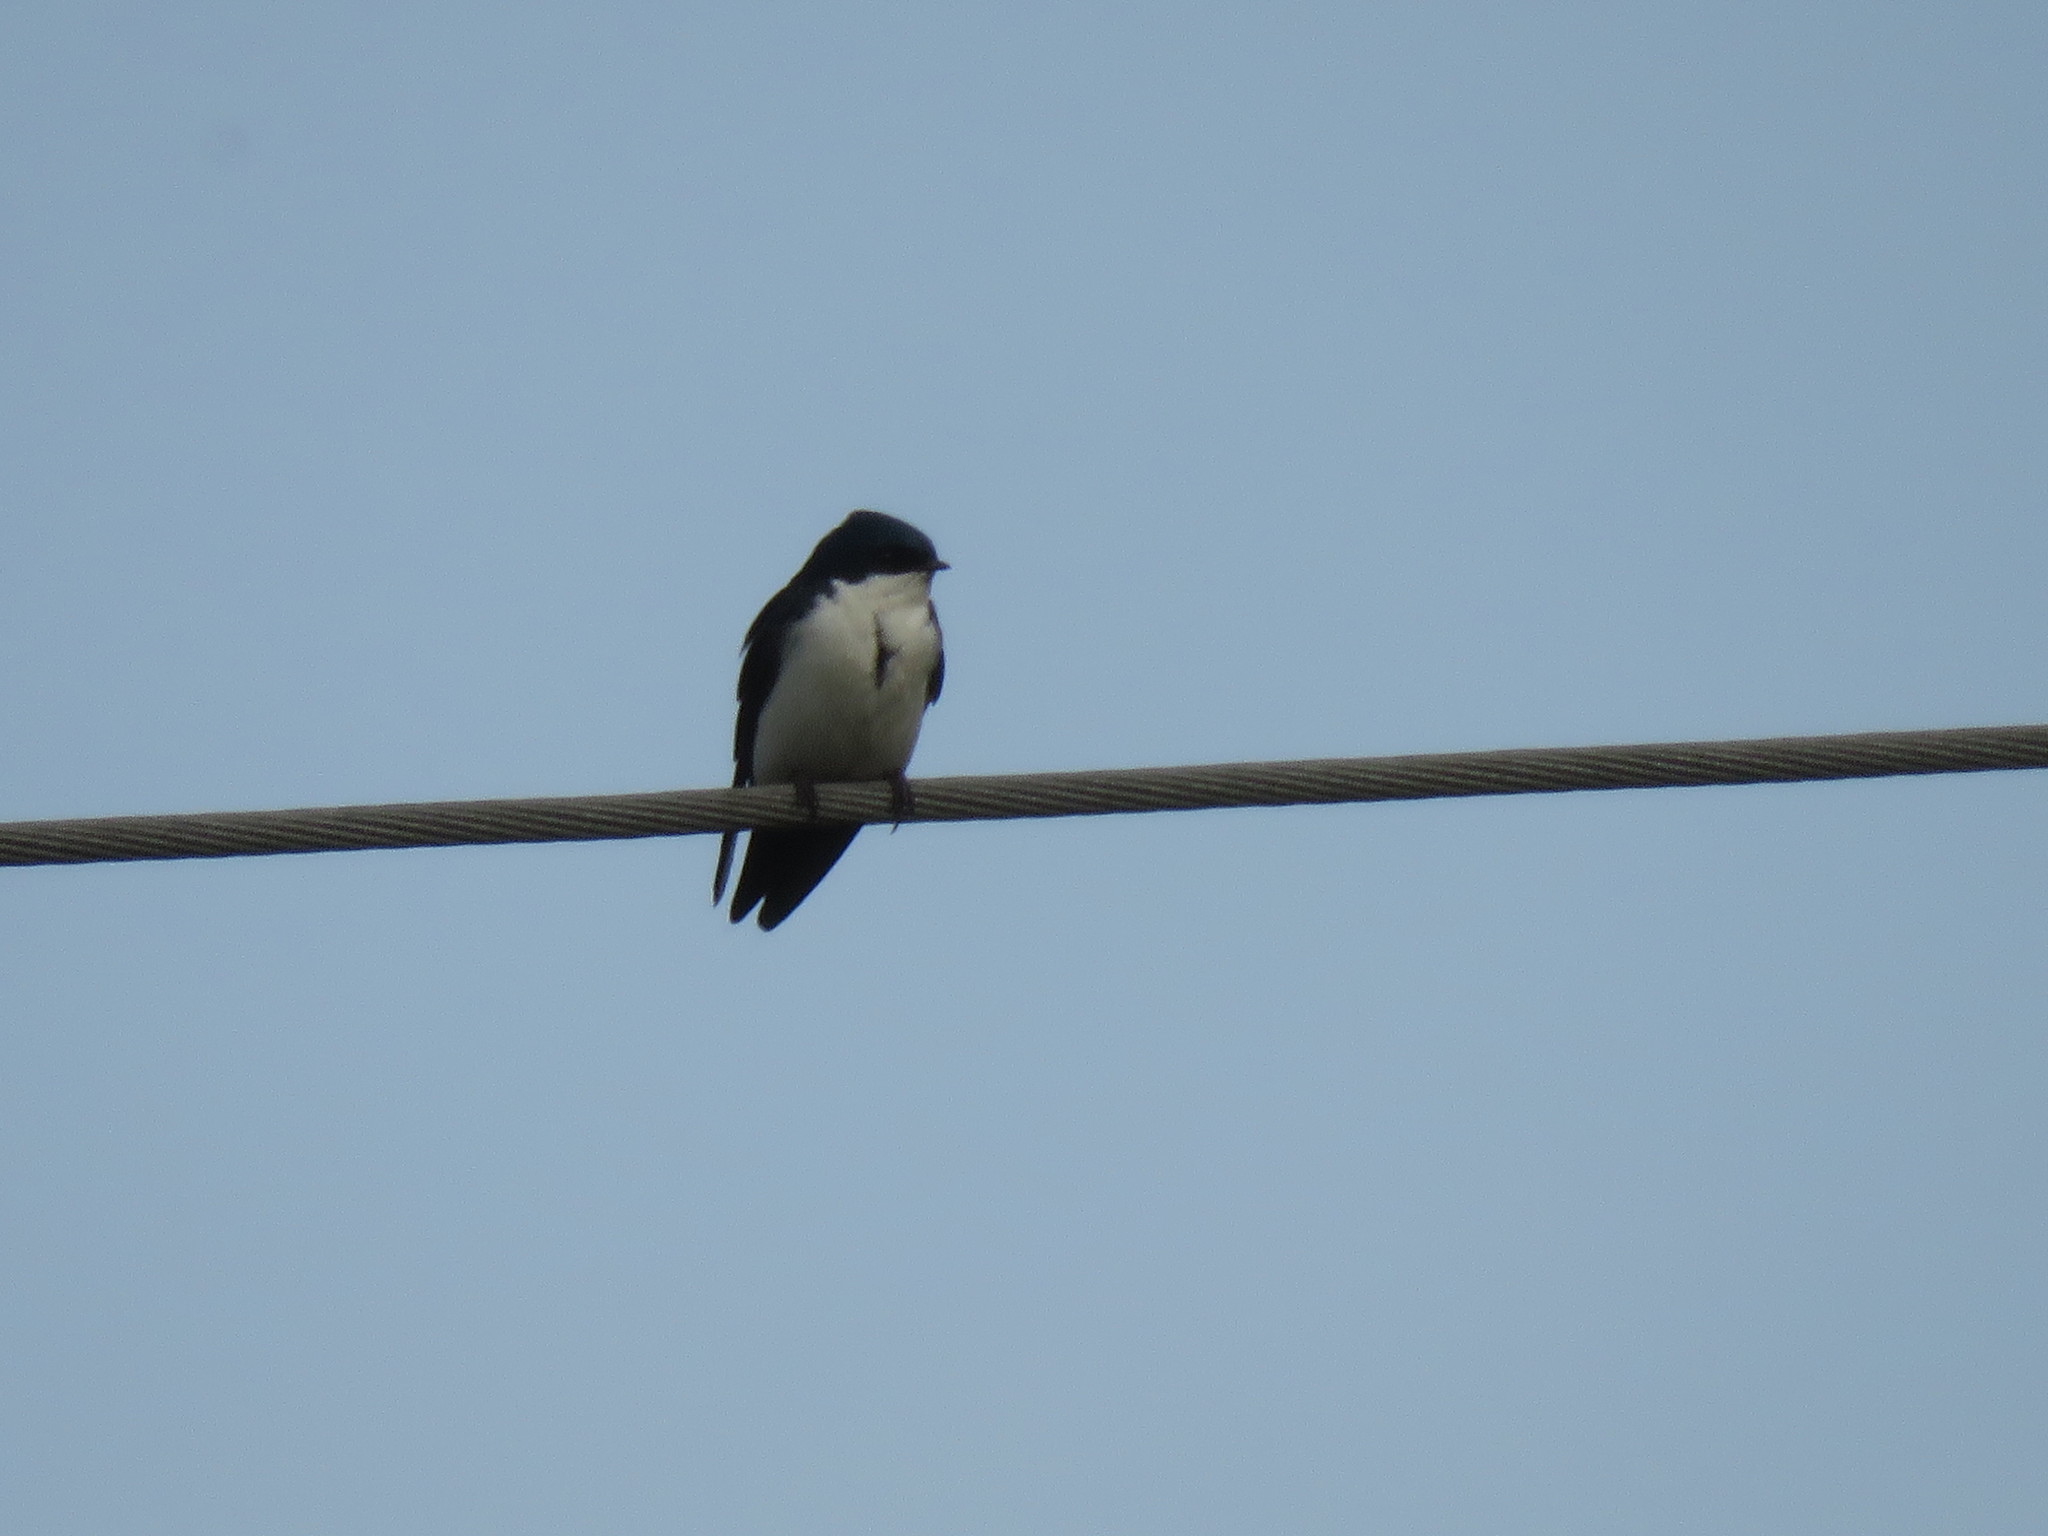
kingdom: Animalia
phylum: Chordata
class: Aves
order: Passeriformes
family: Hirundinidae
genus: Notiochelidon
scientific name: Notiochelidon cyanoleuca
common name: Blue-and-white swallow
